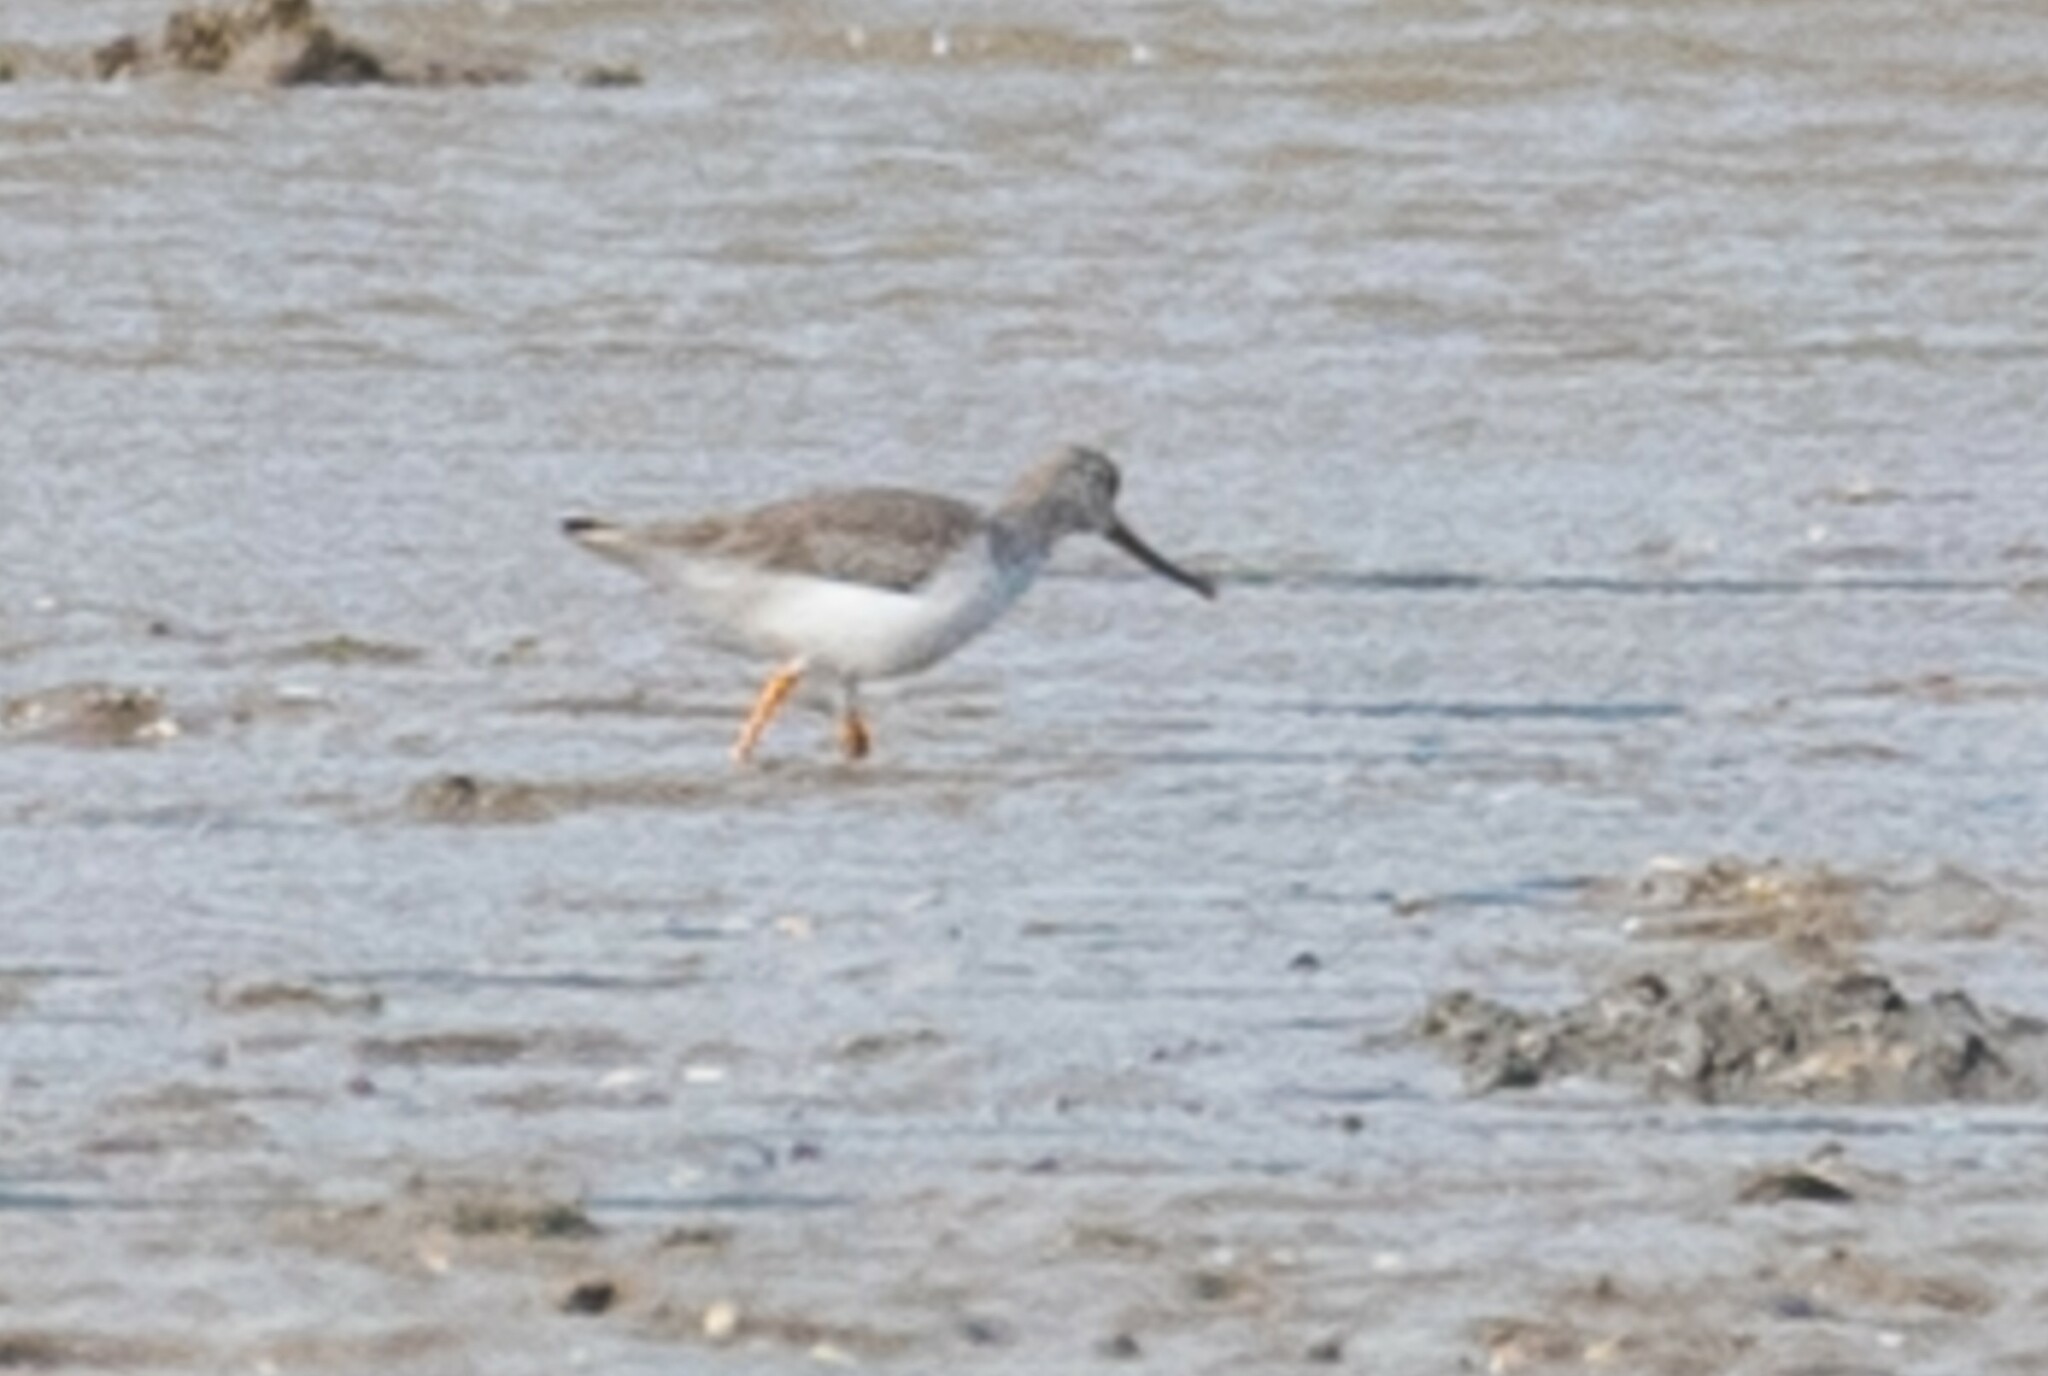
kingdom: Animalia
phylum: Chordata
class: Aves
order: Charadriiformes
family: Scolopacidae
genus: Xenus
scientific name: Xenus cinereus
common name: Terek sandpiper
